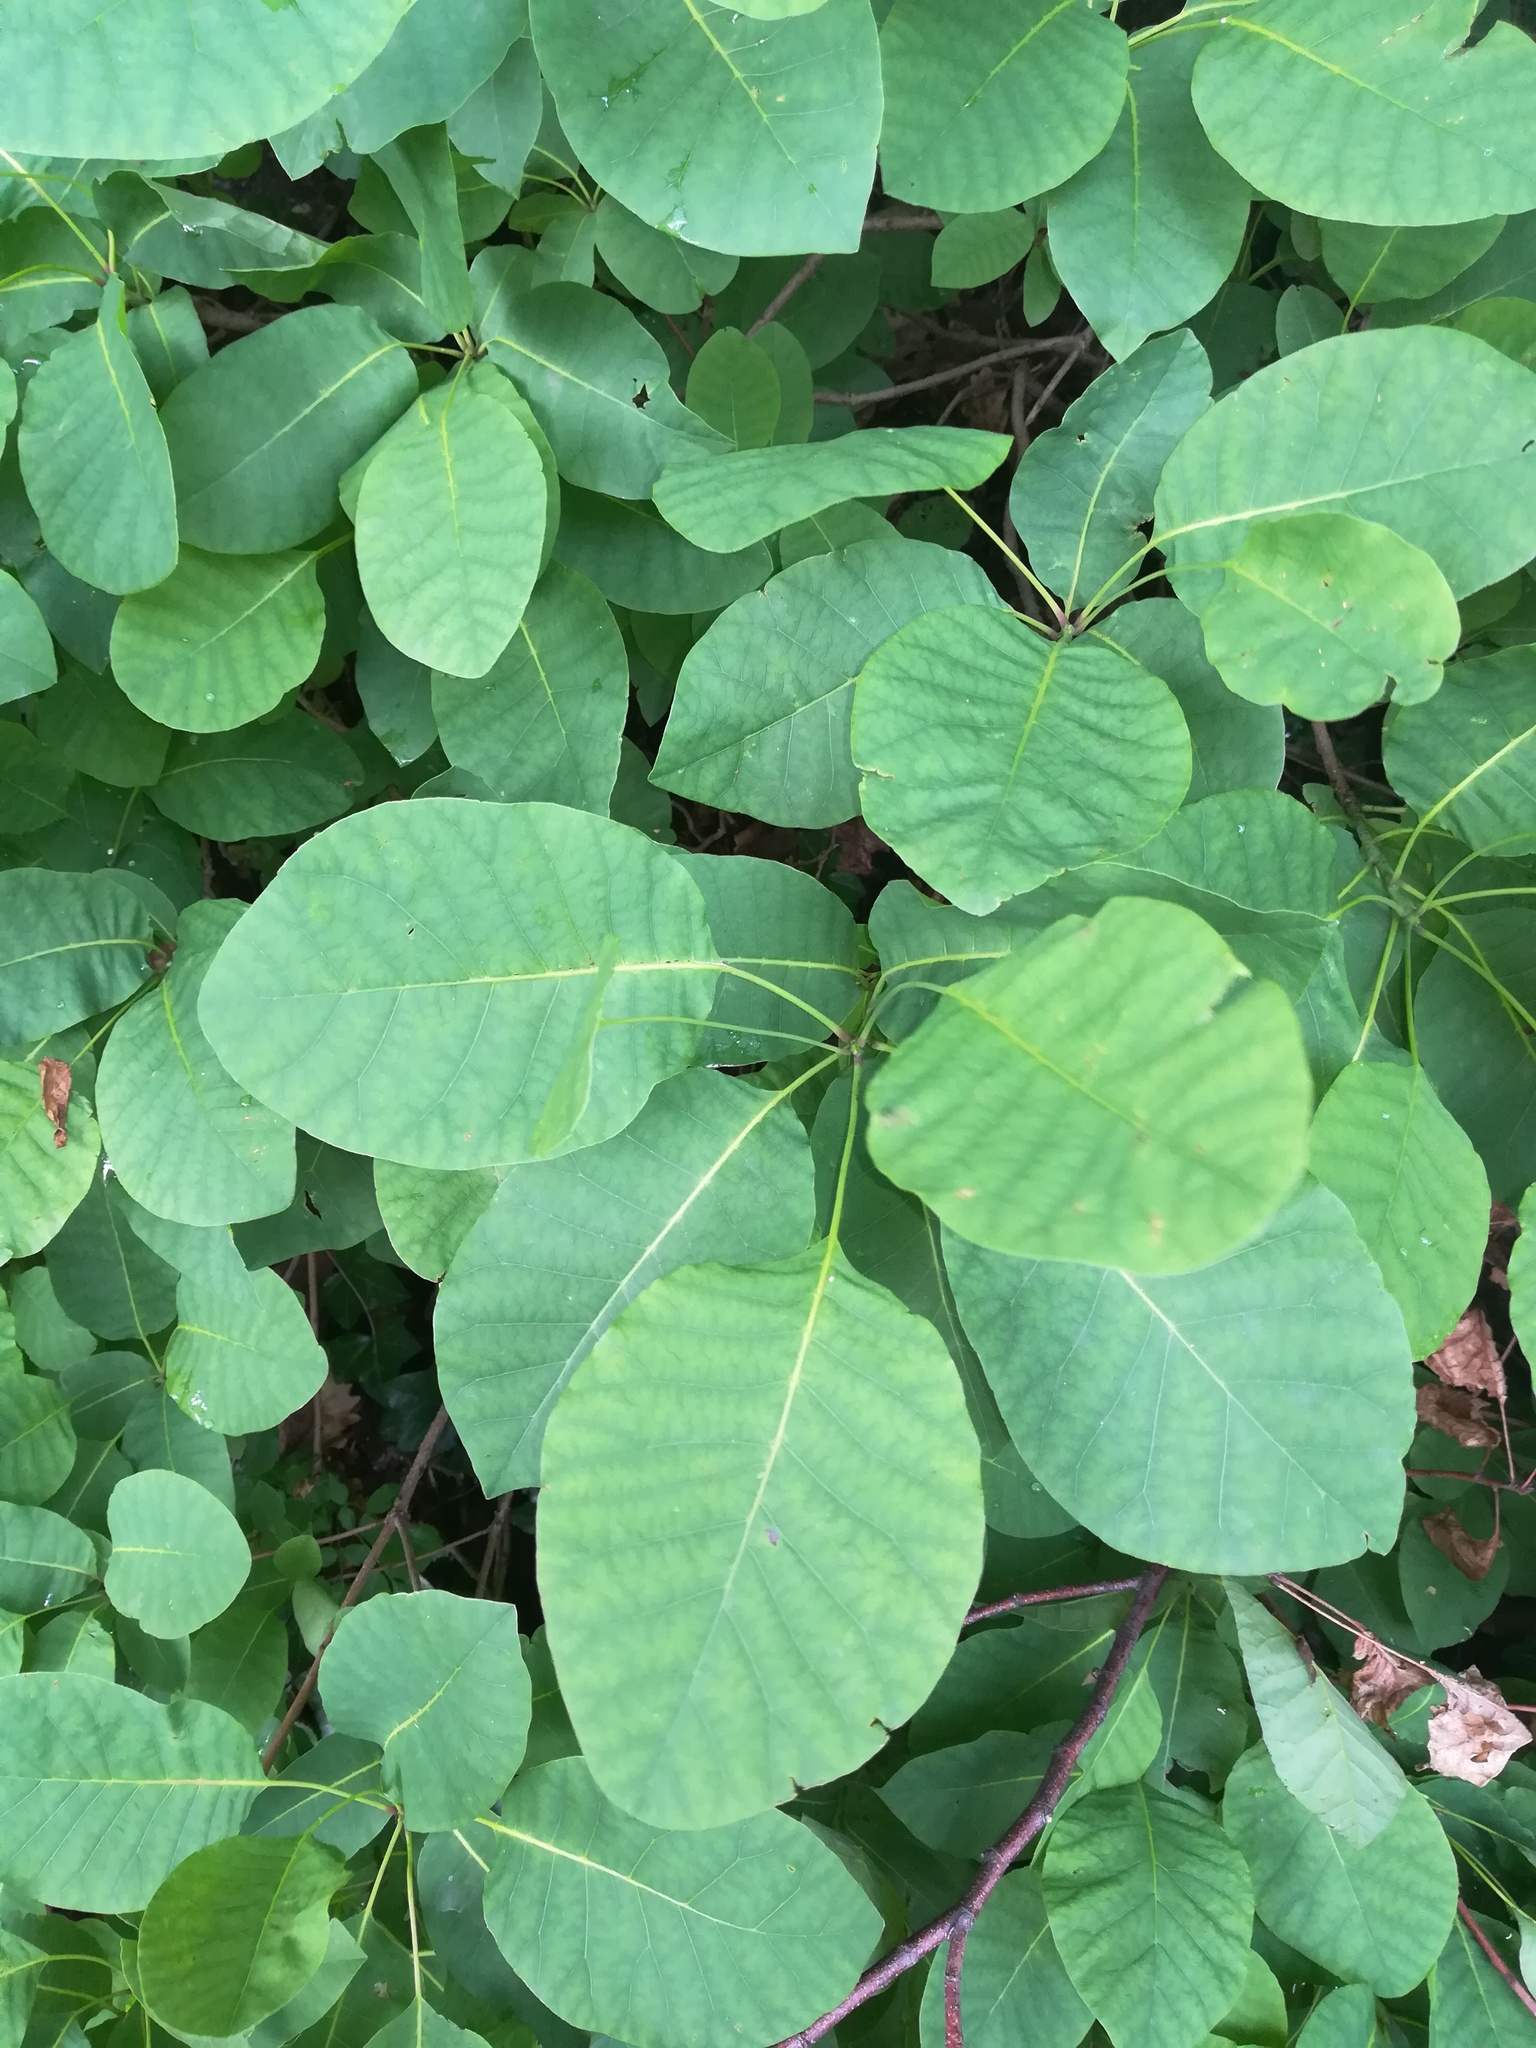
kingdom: Plantae
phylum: Tracheophyta
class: Magnoliopsida
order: Sapindales
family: Anacardiaceae
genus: Cotinus
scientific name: Cotinus coggygria
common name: Smoke-tree
